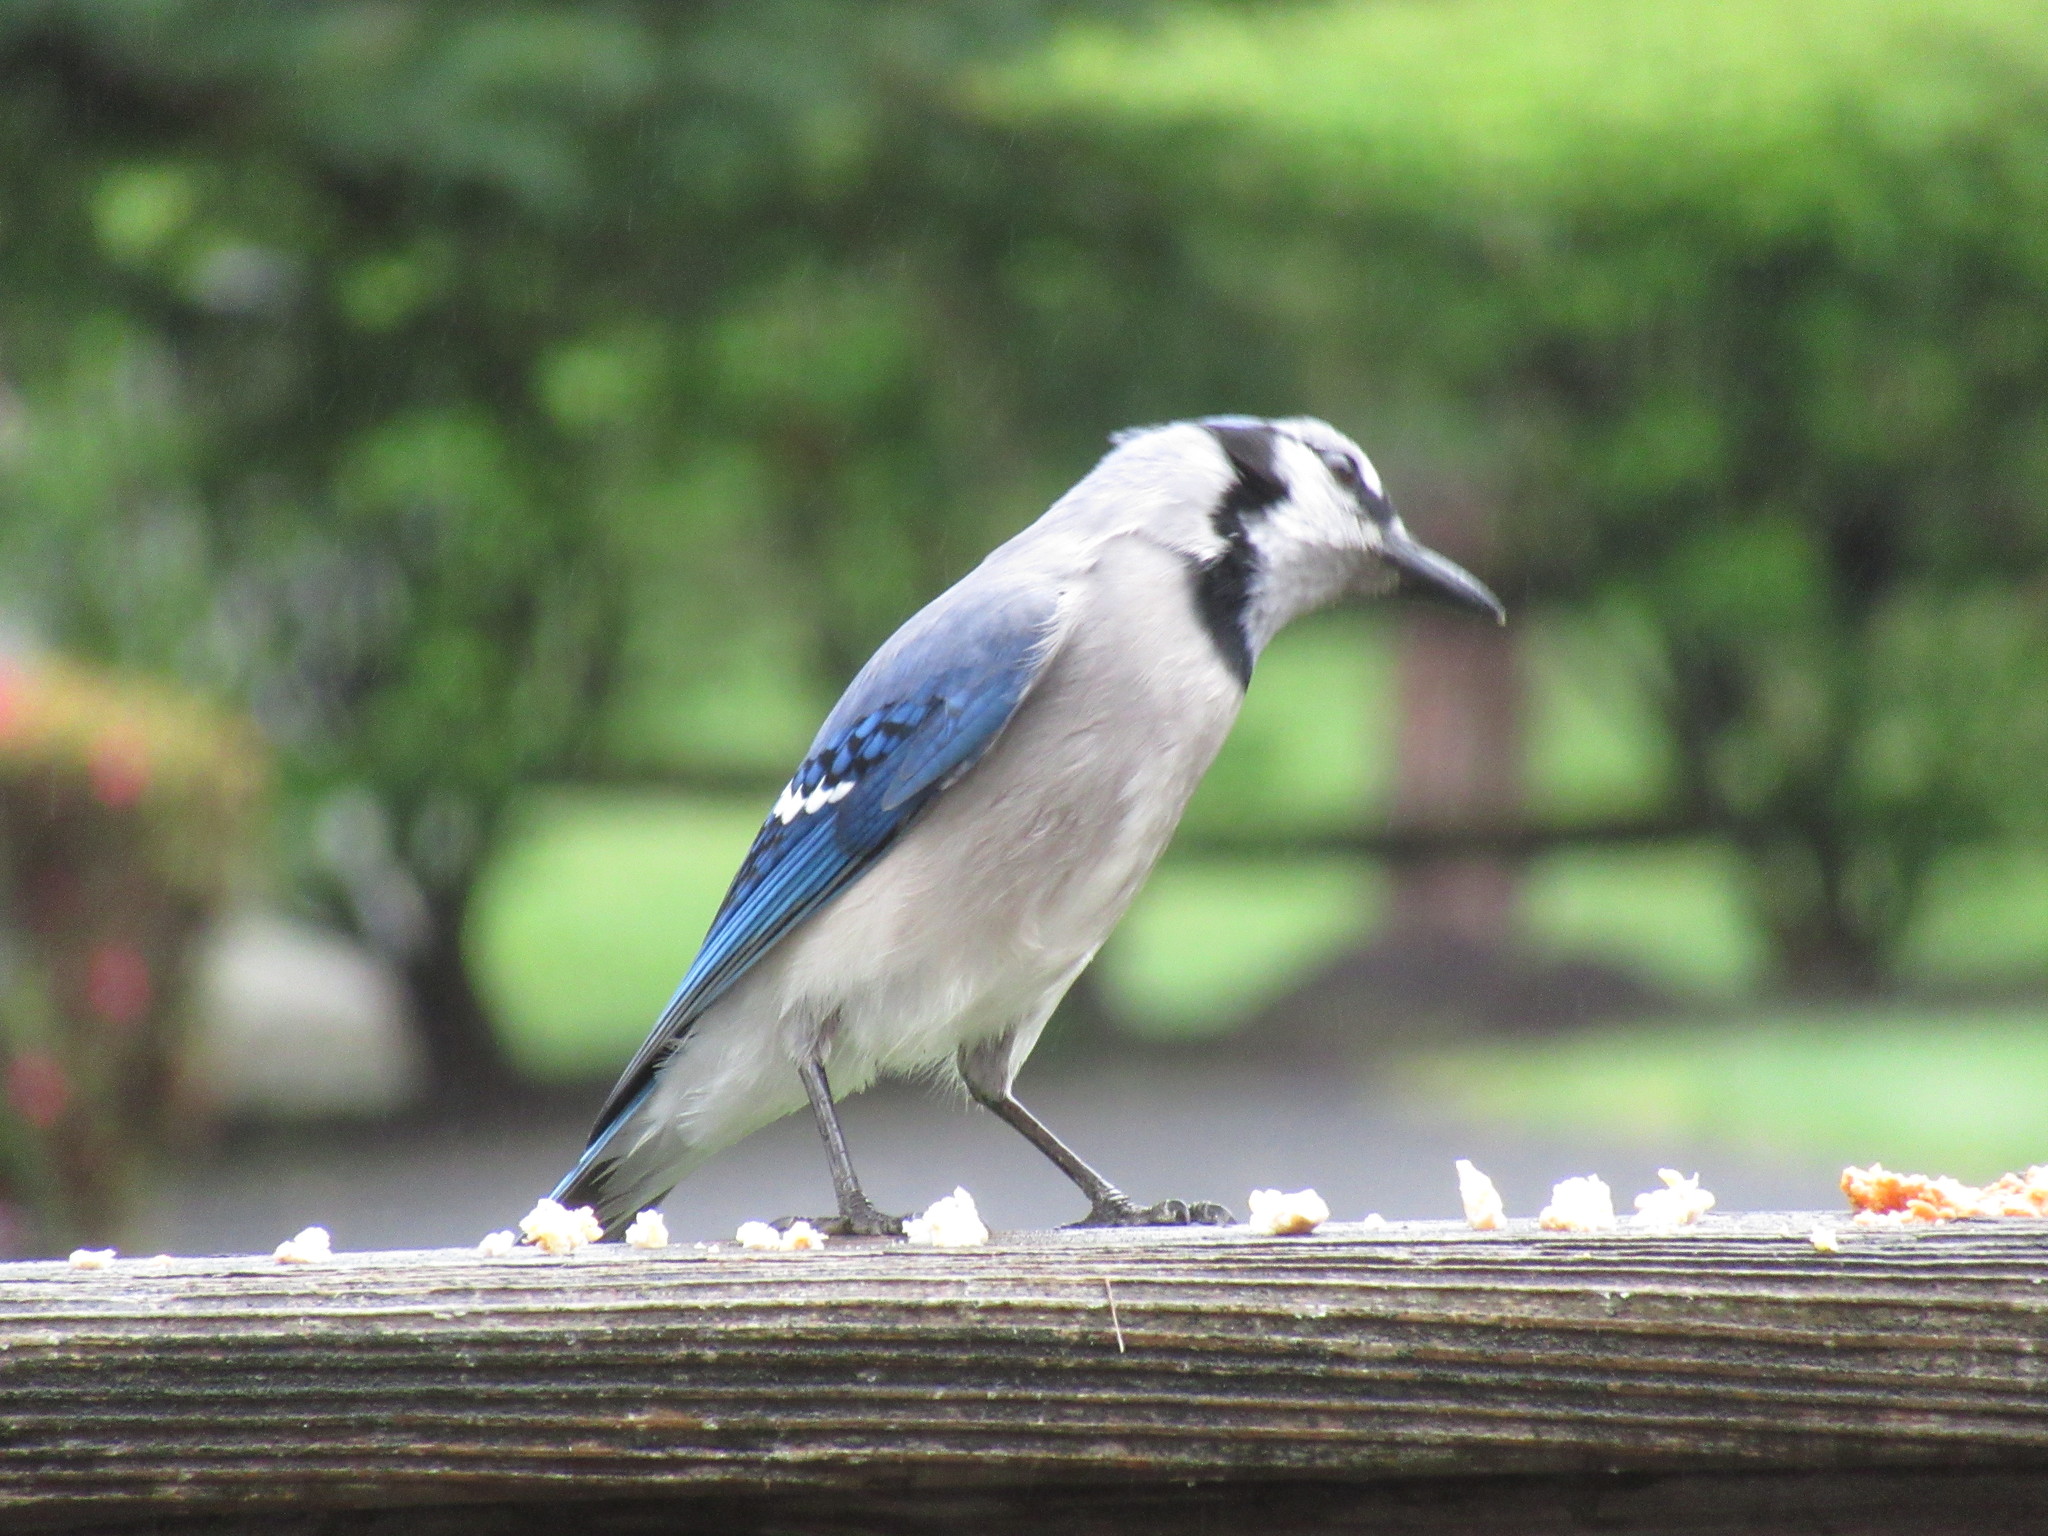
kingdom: Animalia
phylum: Chordata
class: Aves
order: Passeriformes
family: Corvidae
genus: Cyanocitta
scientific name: Cyanocitta cristata
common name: Blue jay
